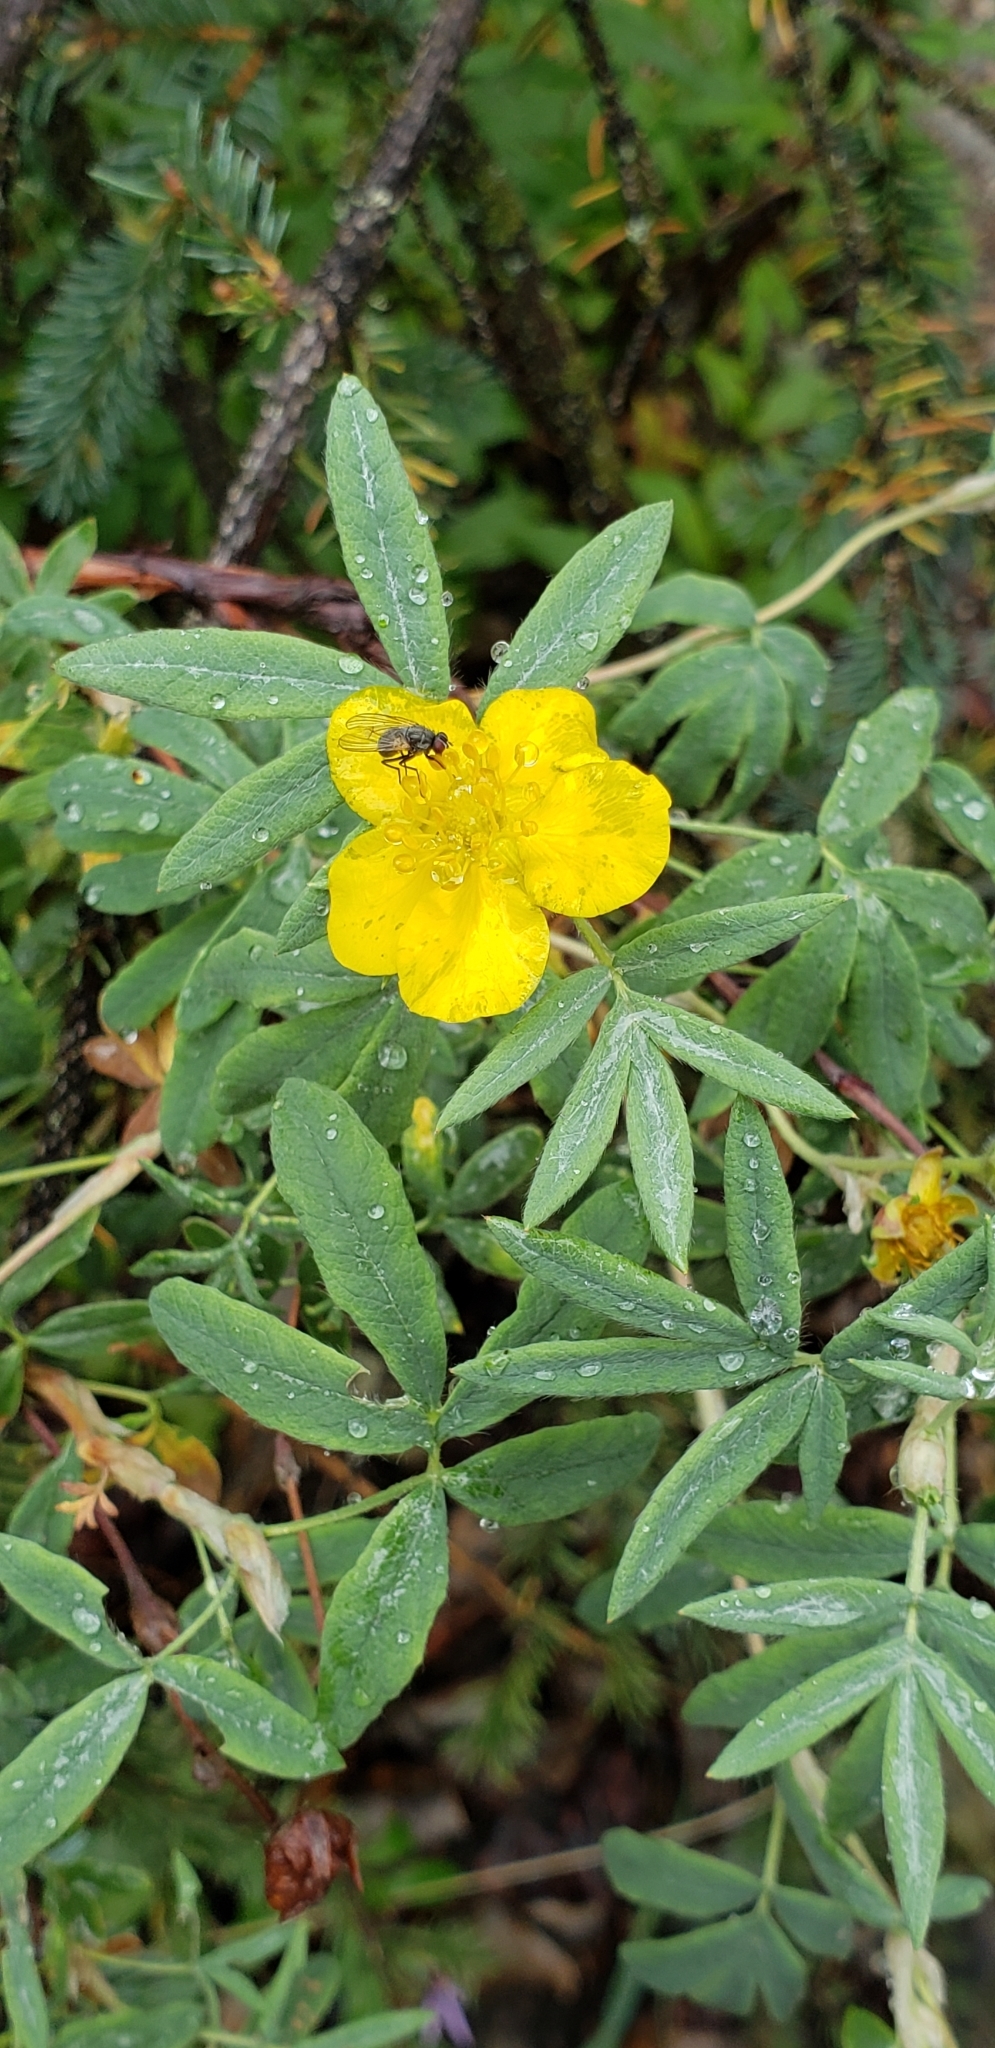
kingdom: Plantae
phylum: Tracheophyta
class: Magnoliopsida
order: Rosales
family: Rosaceae
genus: Dasiphora
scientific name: Dasiphora fruticosa
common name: Shrubby cinquefoil
